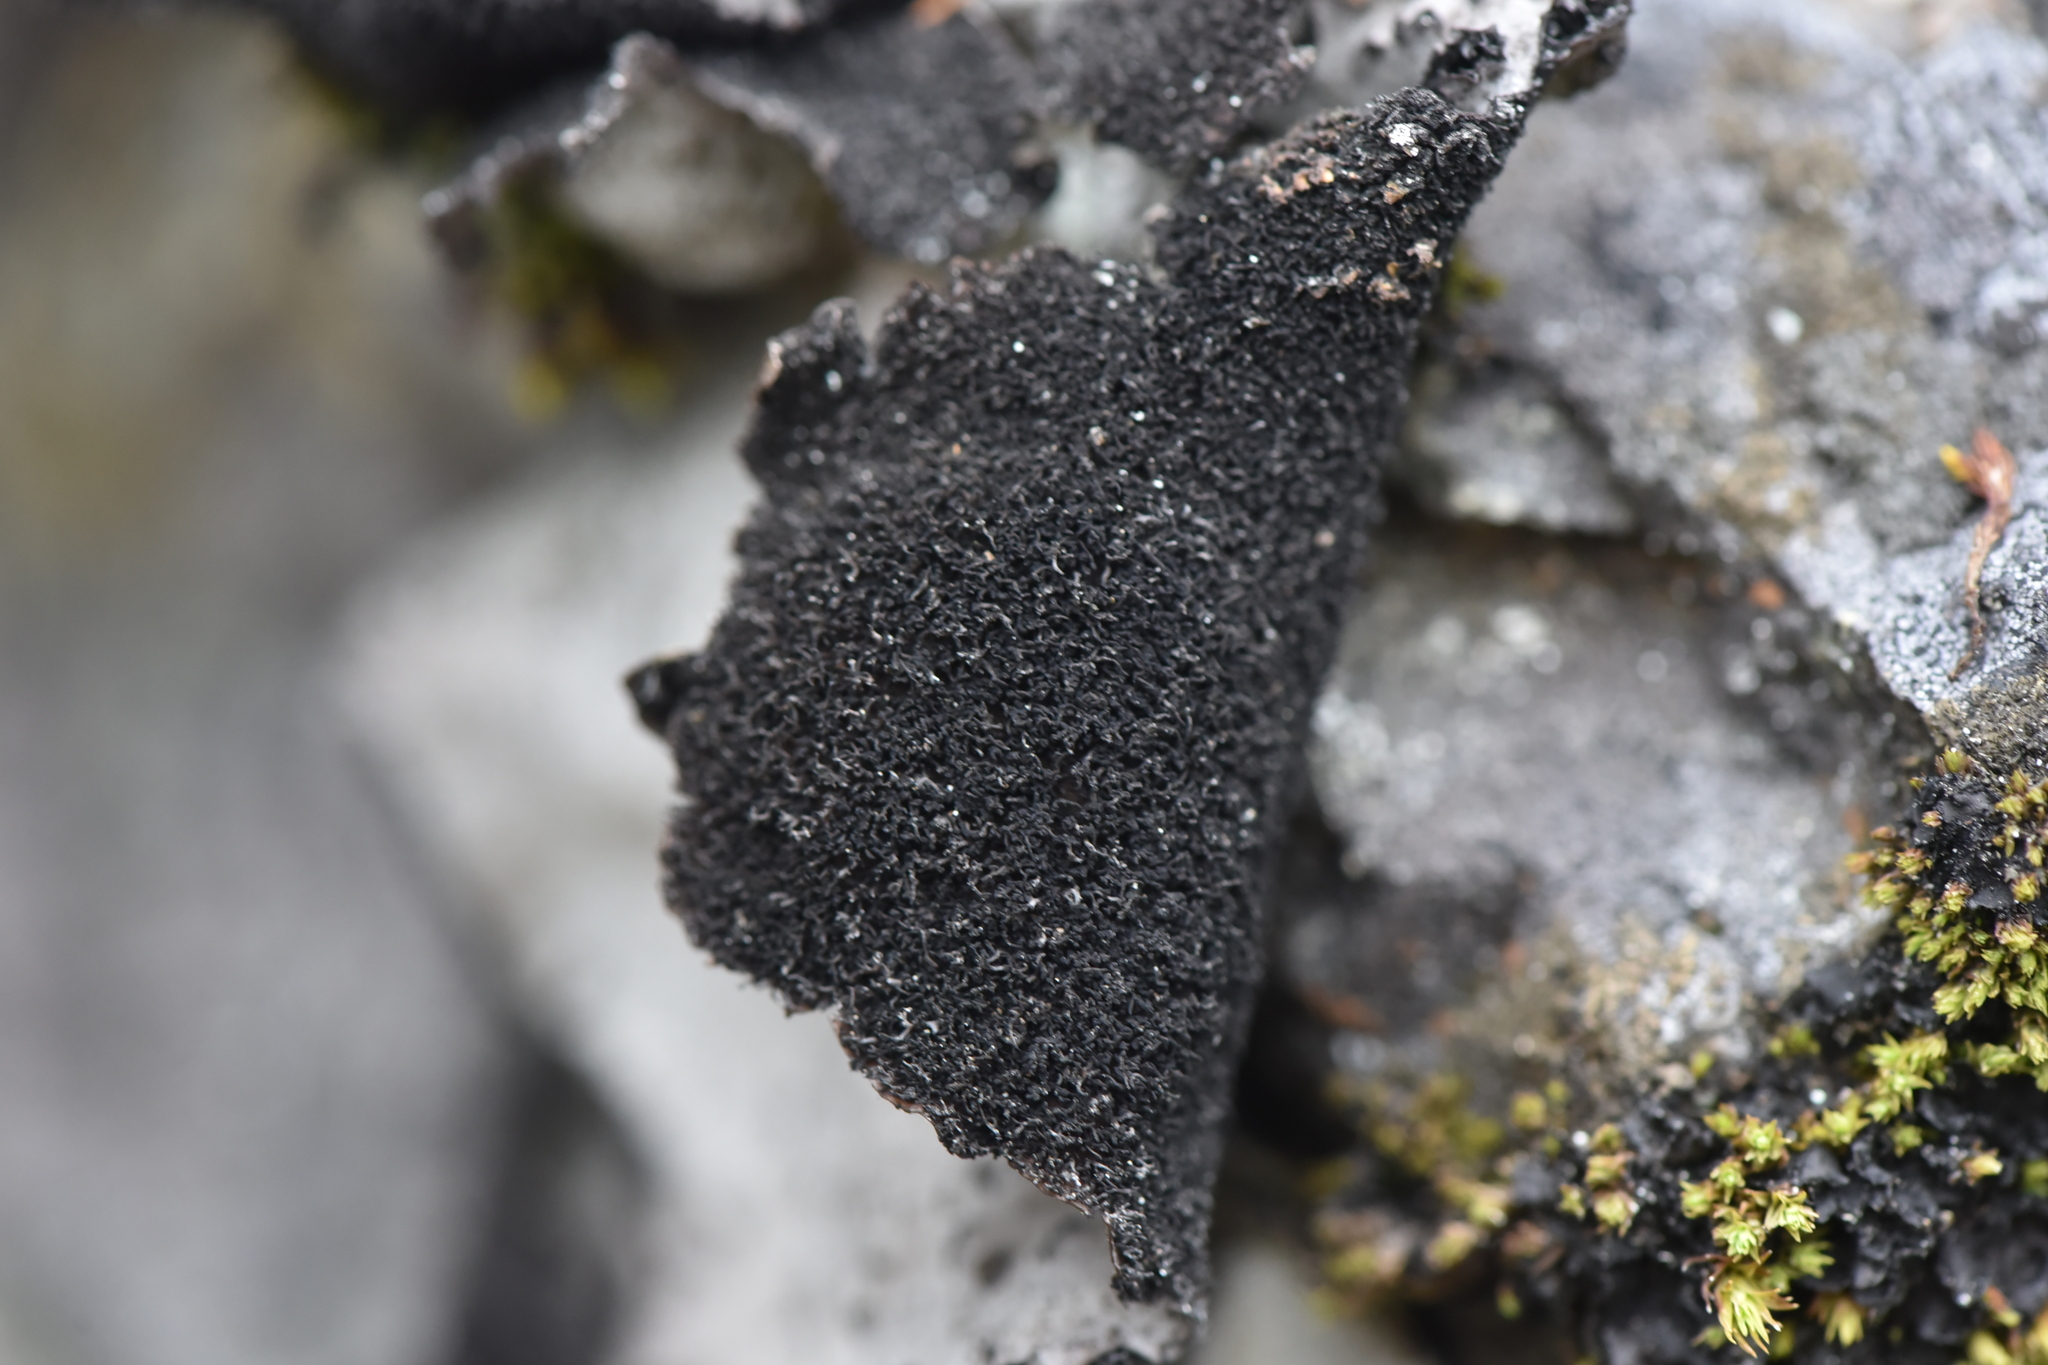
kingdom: Fungi
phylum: Ascomycota
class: Lecanoromycetes
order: Umbilicariales
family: Umbilicariaceae
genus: Umbilicaria
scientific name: Umbilicaria americana
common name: Frosted rock tripe
